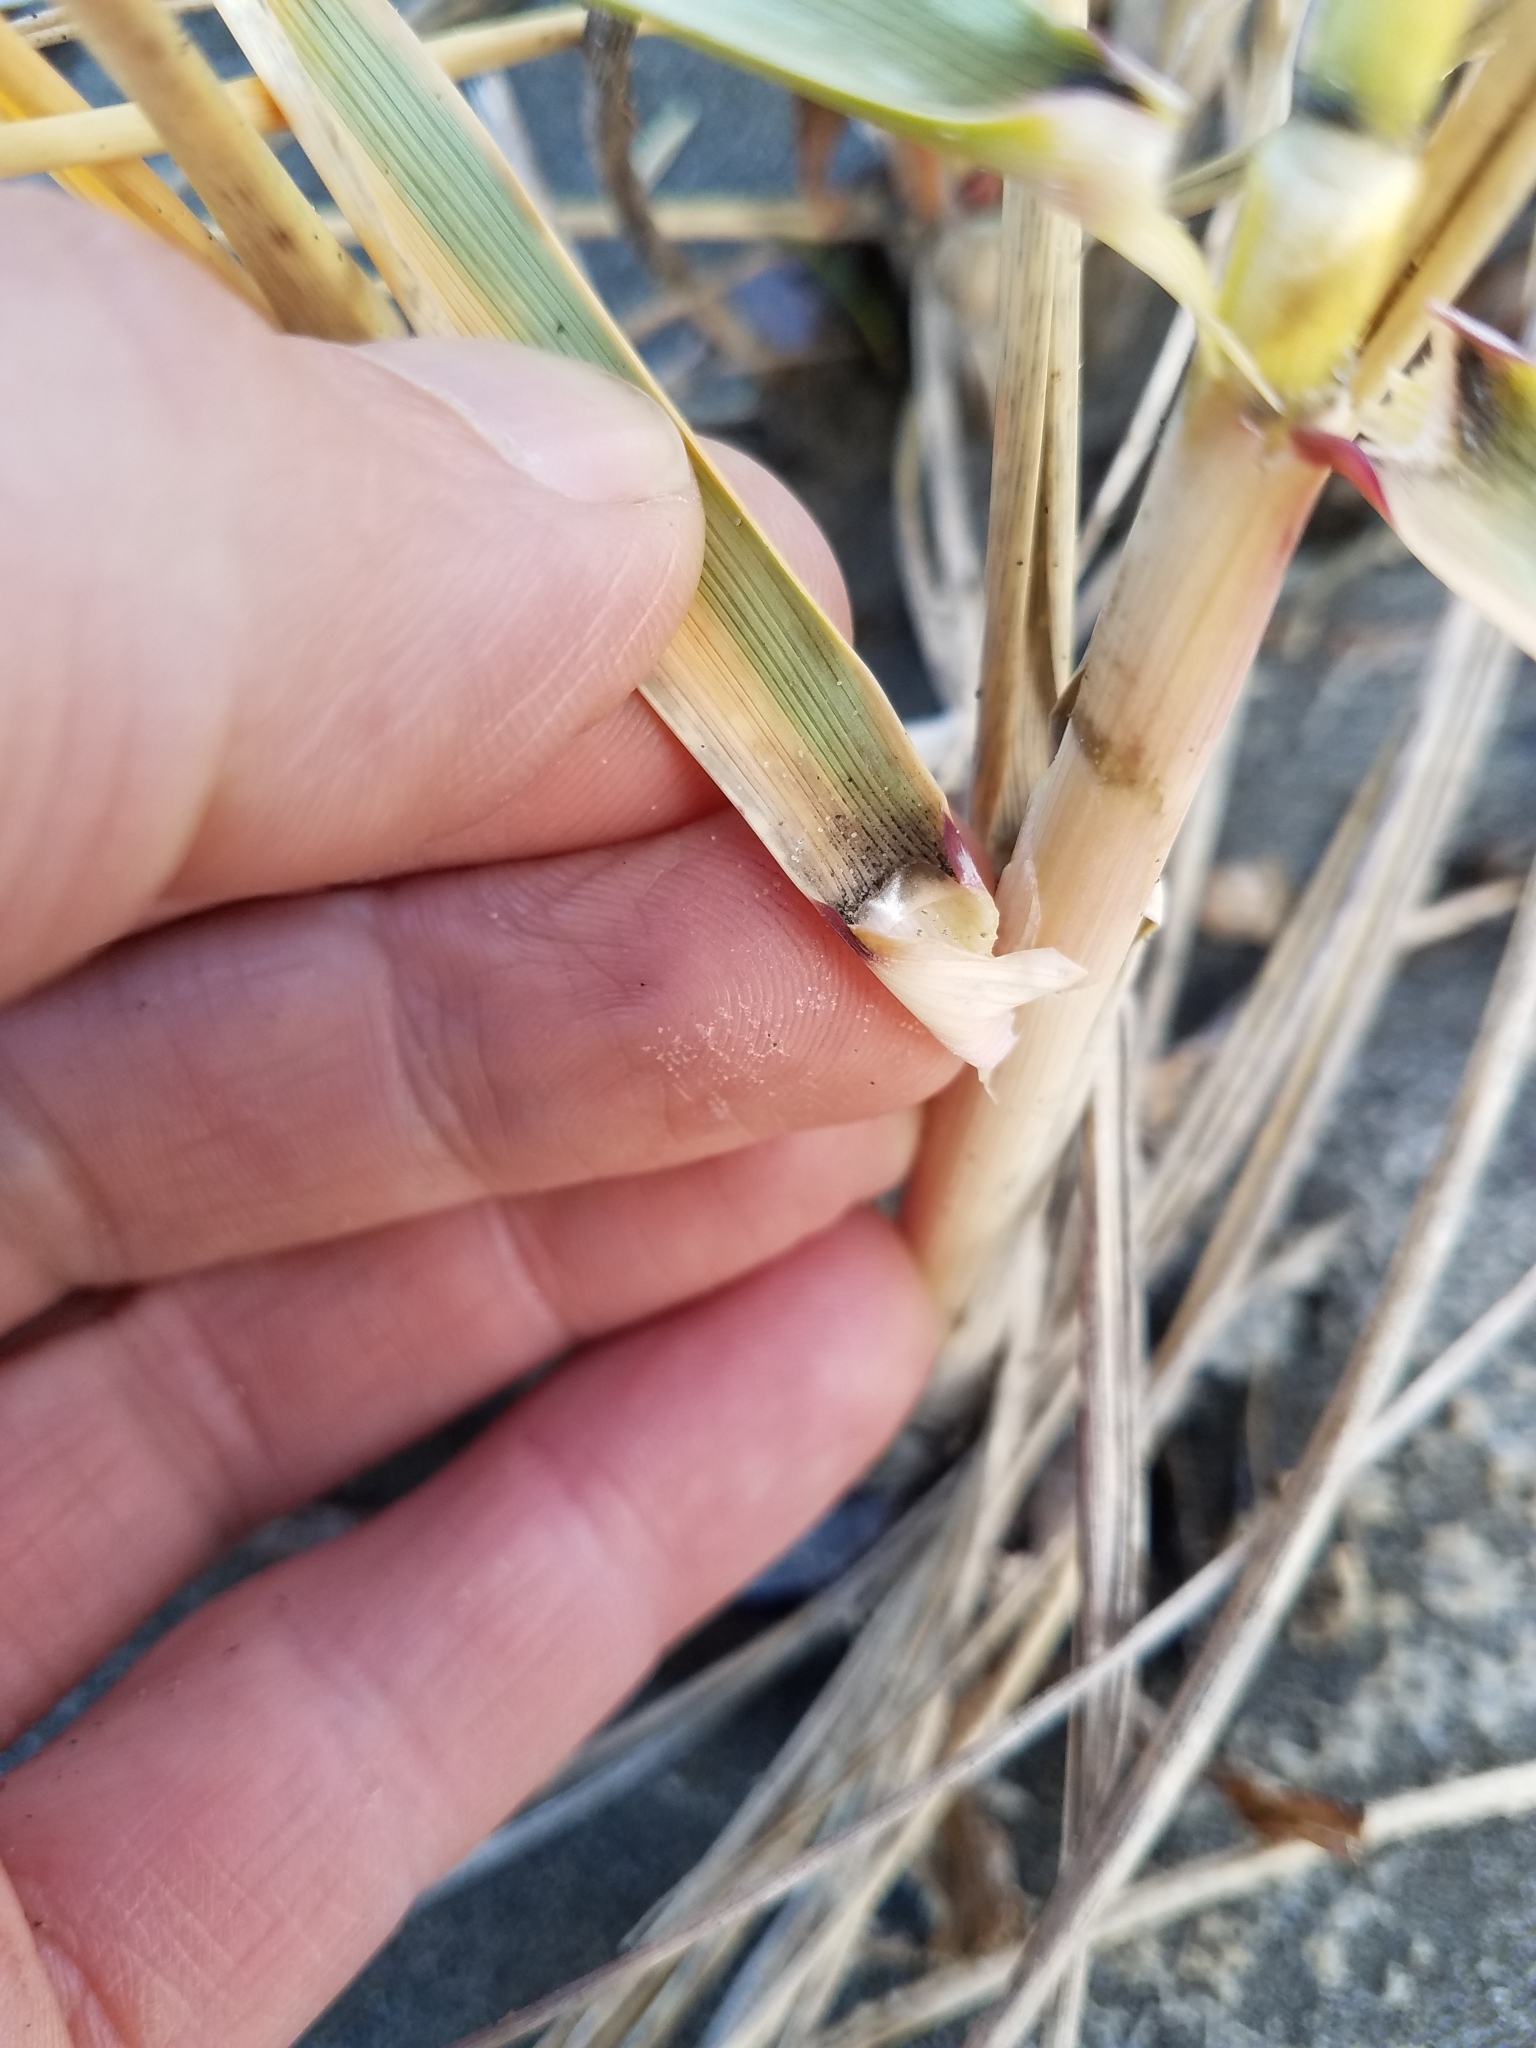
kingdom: Plantae
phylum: Tracheophyta
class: Liliopsida
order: Poales
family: Poaceae
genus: Calamagrostis
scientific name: Calamagrostis breviligulata
